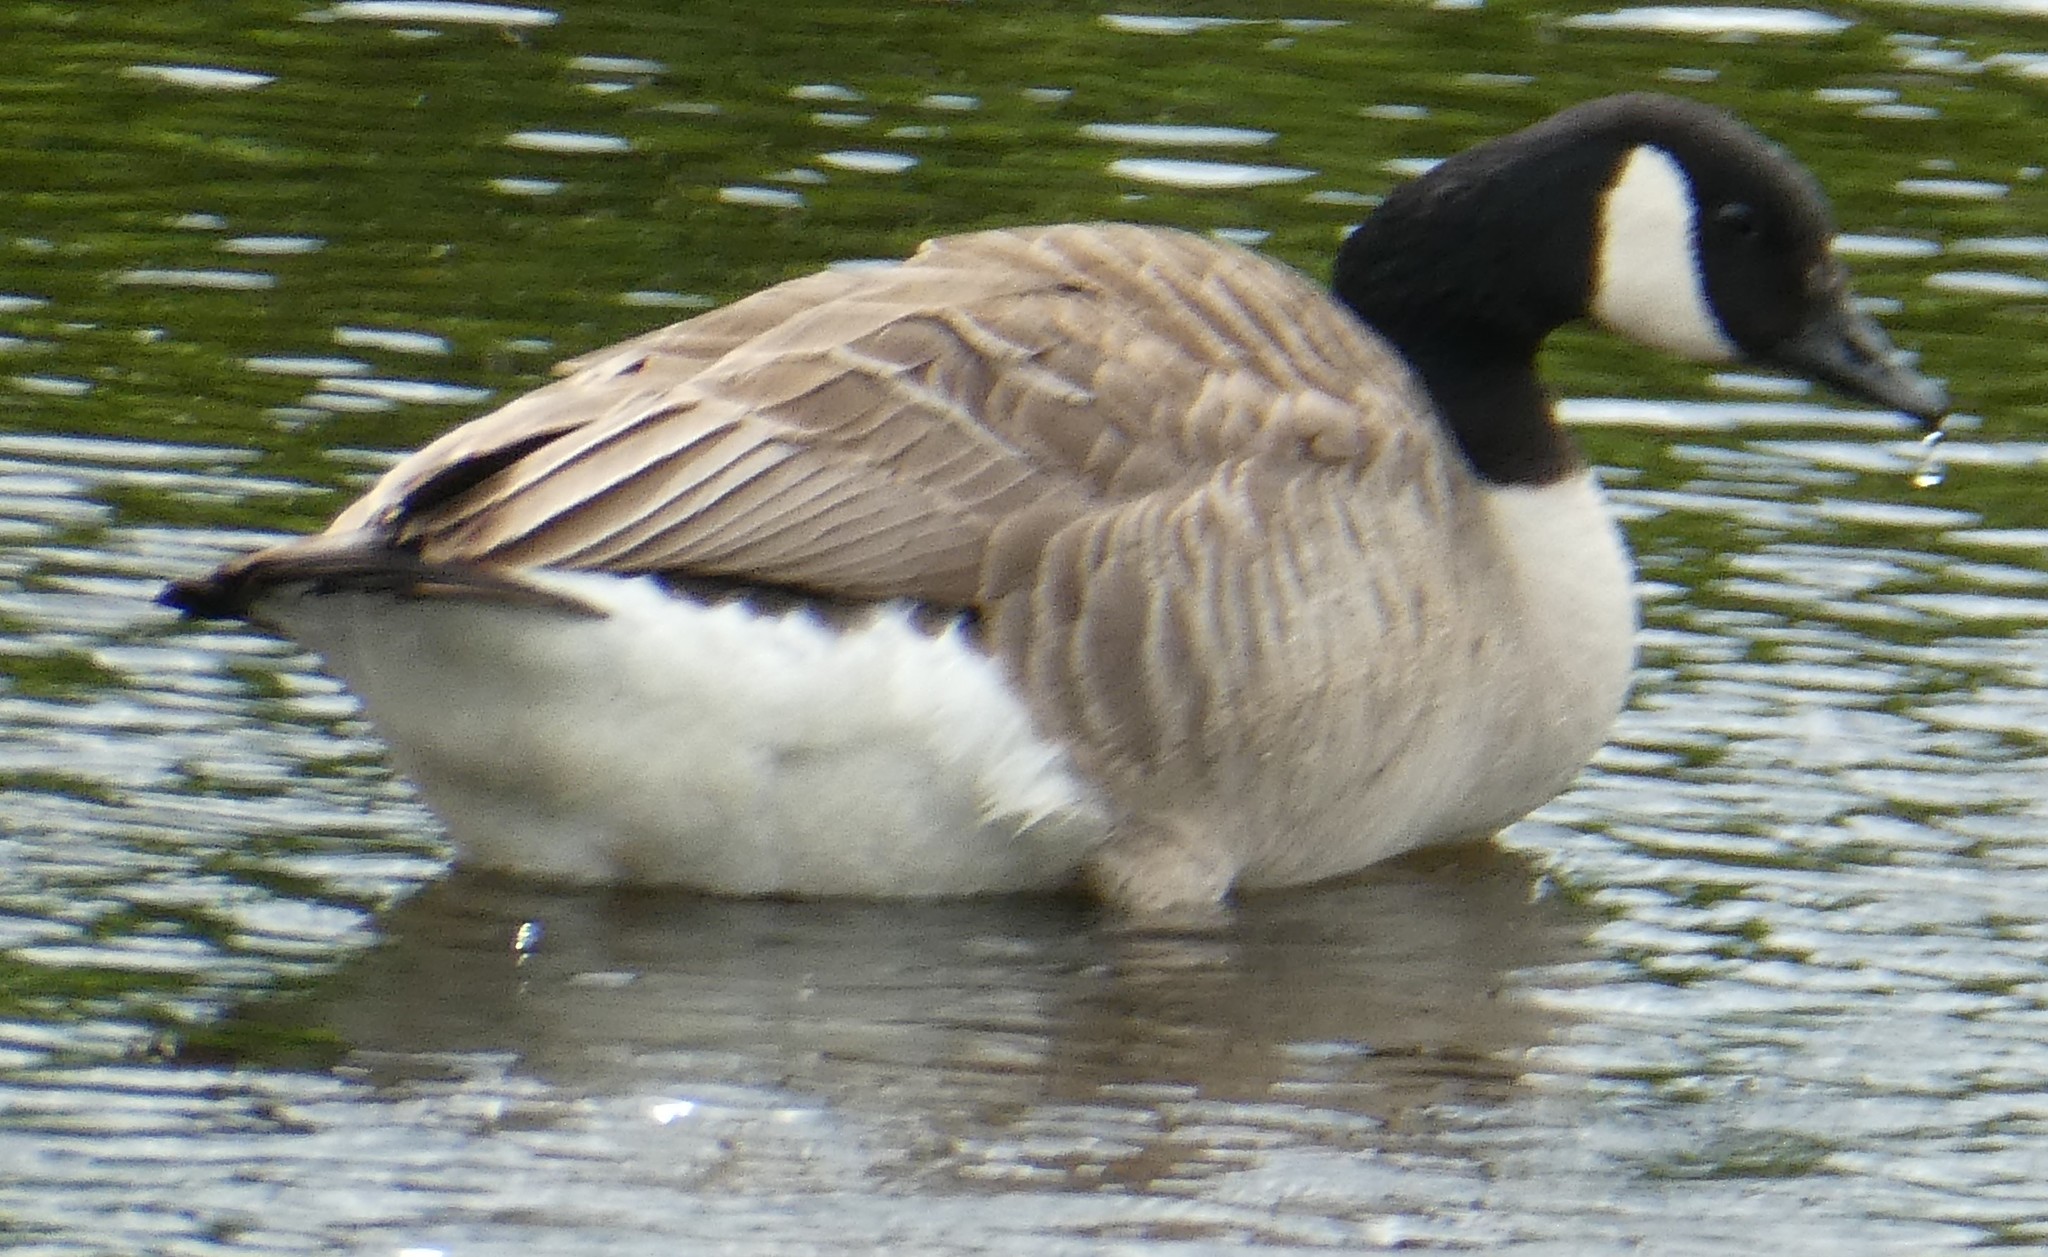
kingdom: Animalia
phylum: Chordata
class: Aves
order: Anseriformes
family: Anatidae
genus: Branta
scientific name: Branta canadensis
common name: Canada goose
